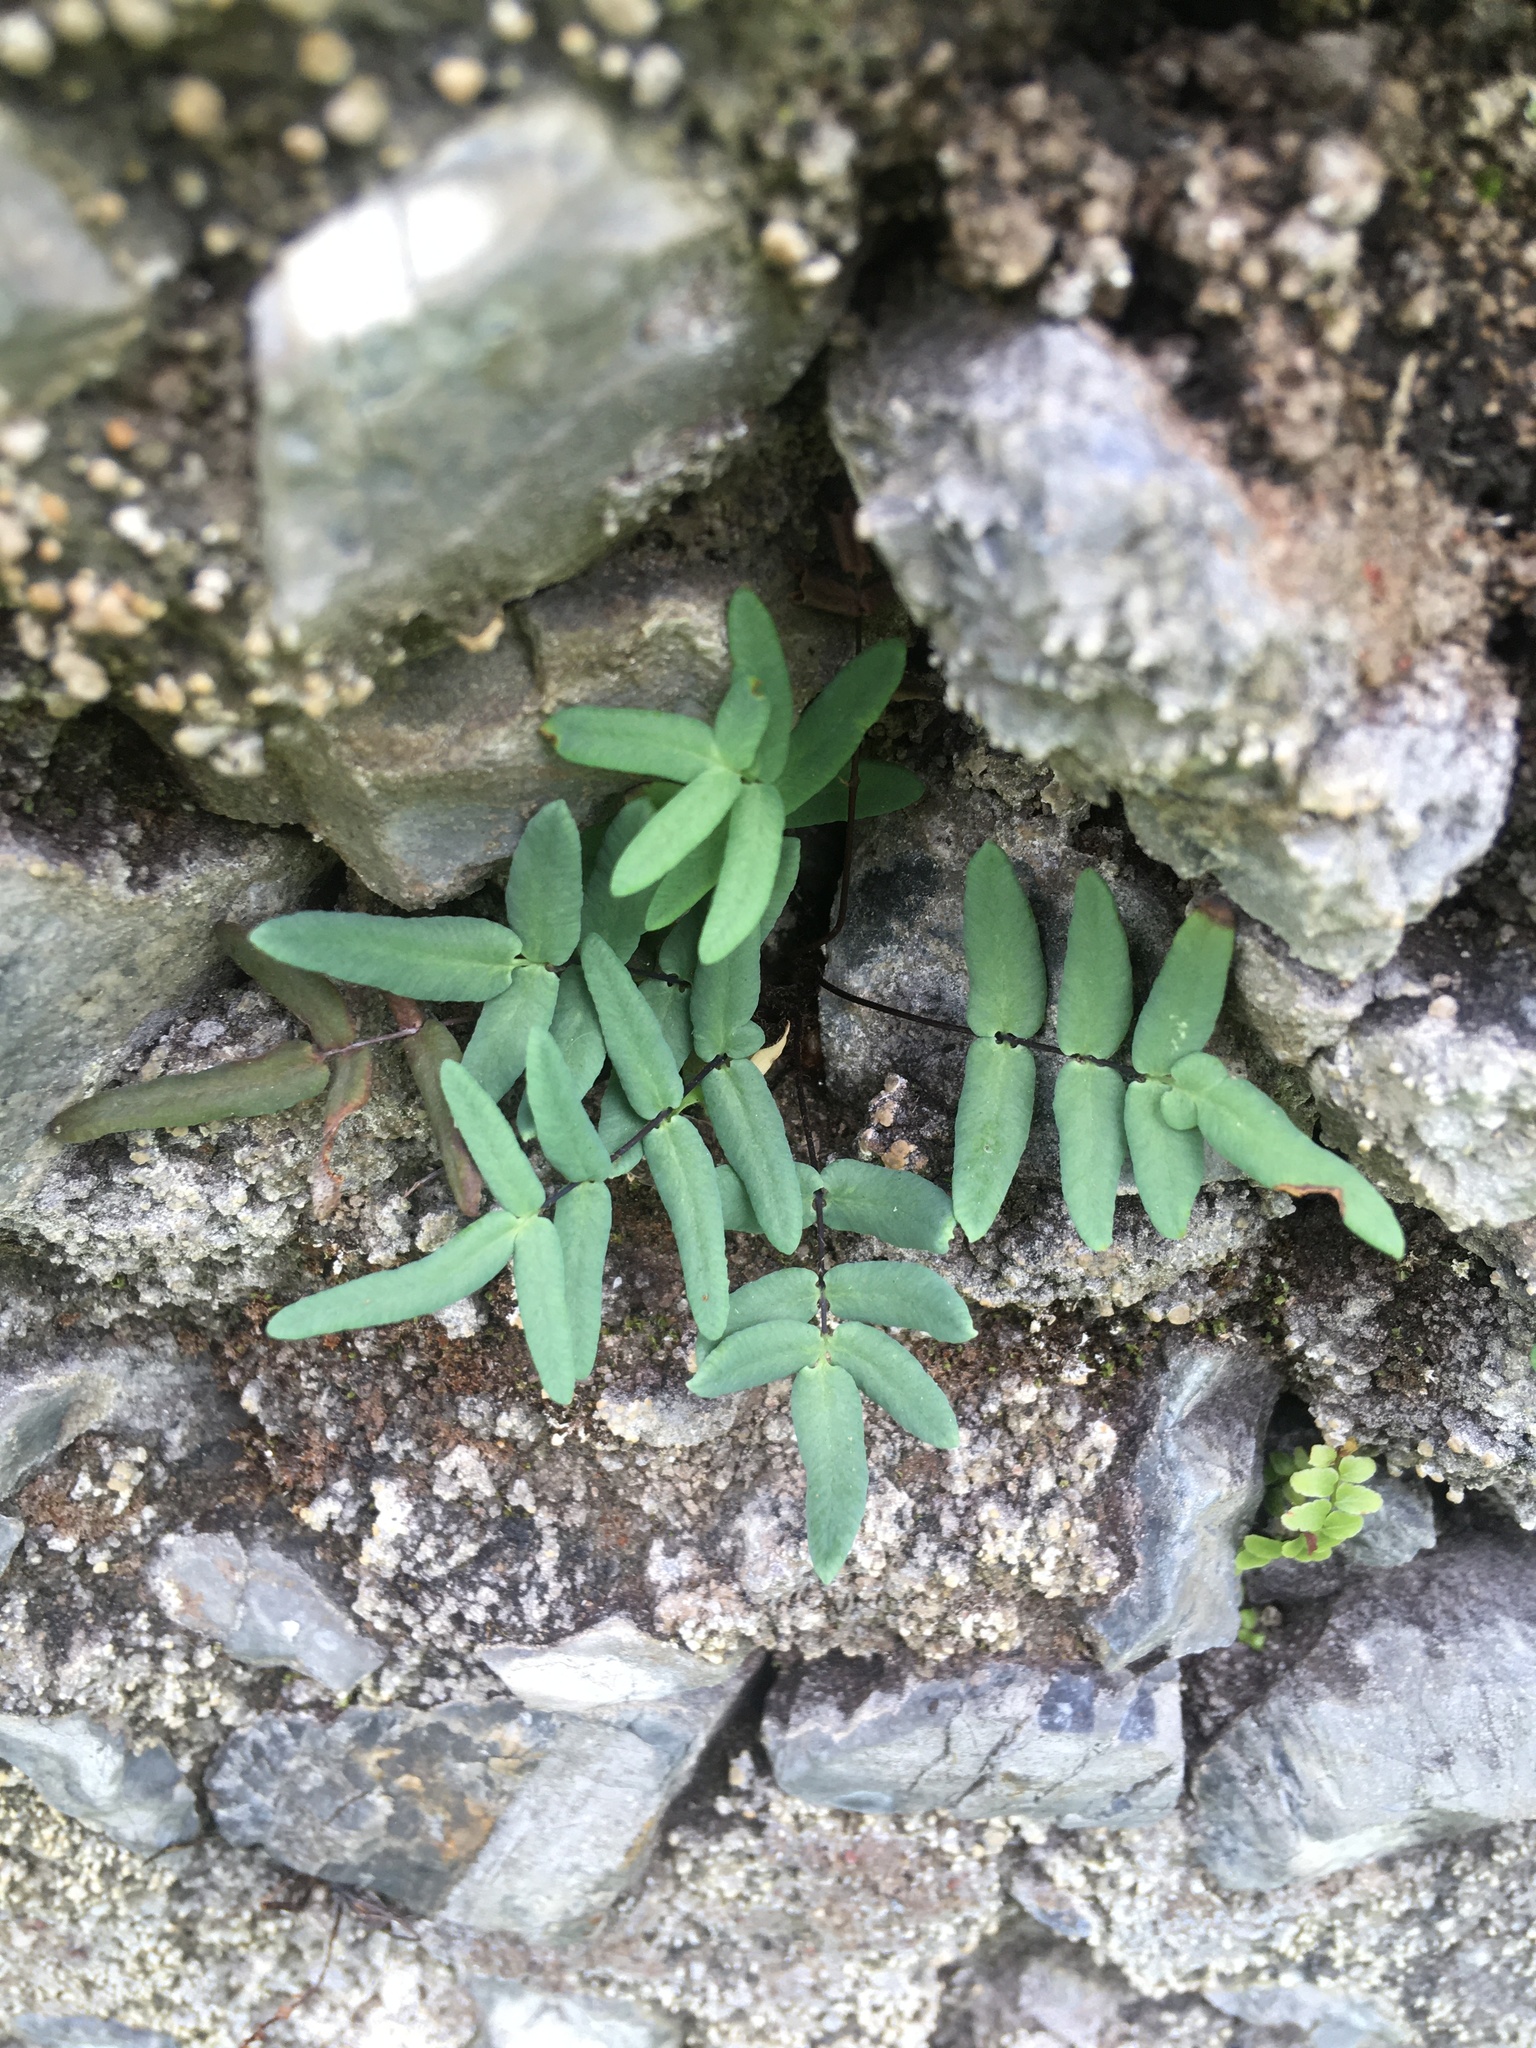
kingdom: Plantae
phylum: Tracheophyta
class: Polypodiopsida
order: Polypodiales
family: Pteridaceae
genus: Pellaea
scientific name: Pellaea glabella
